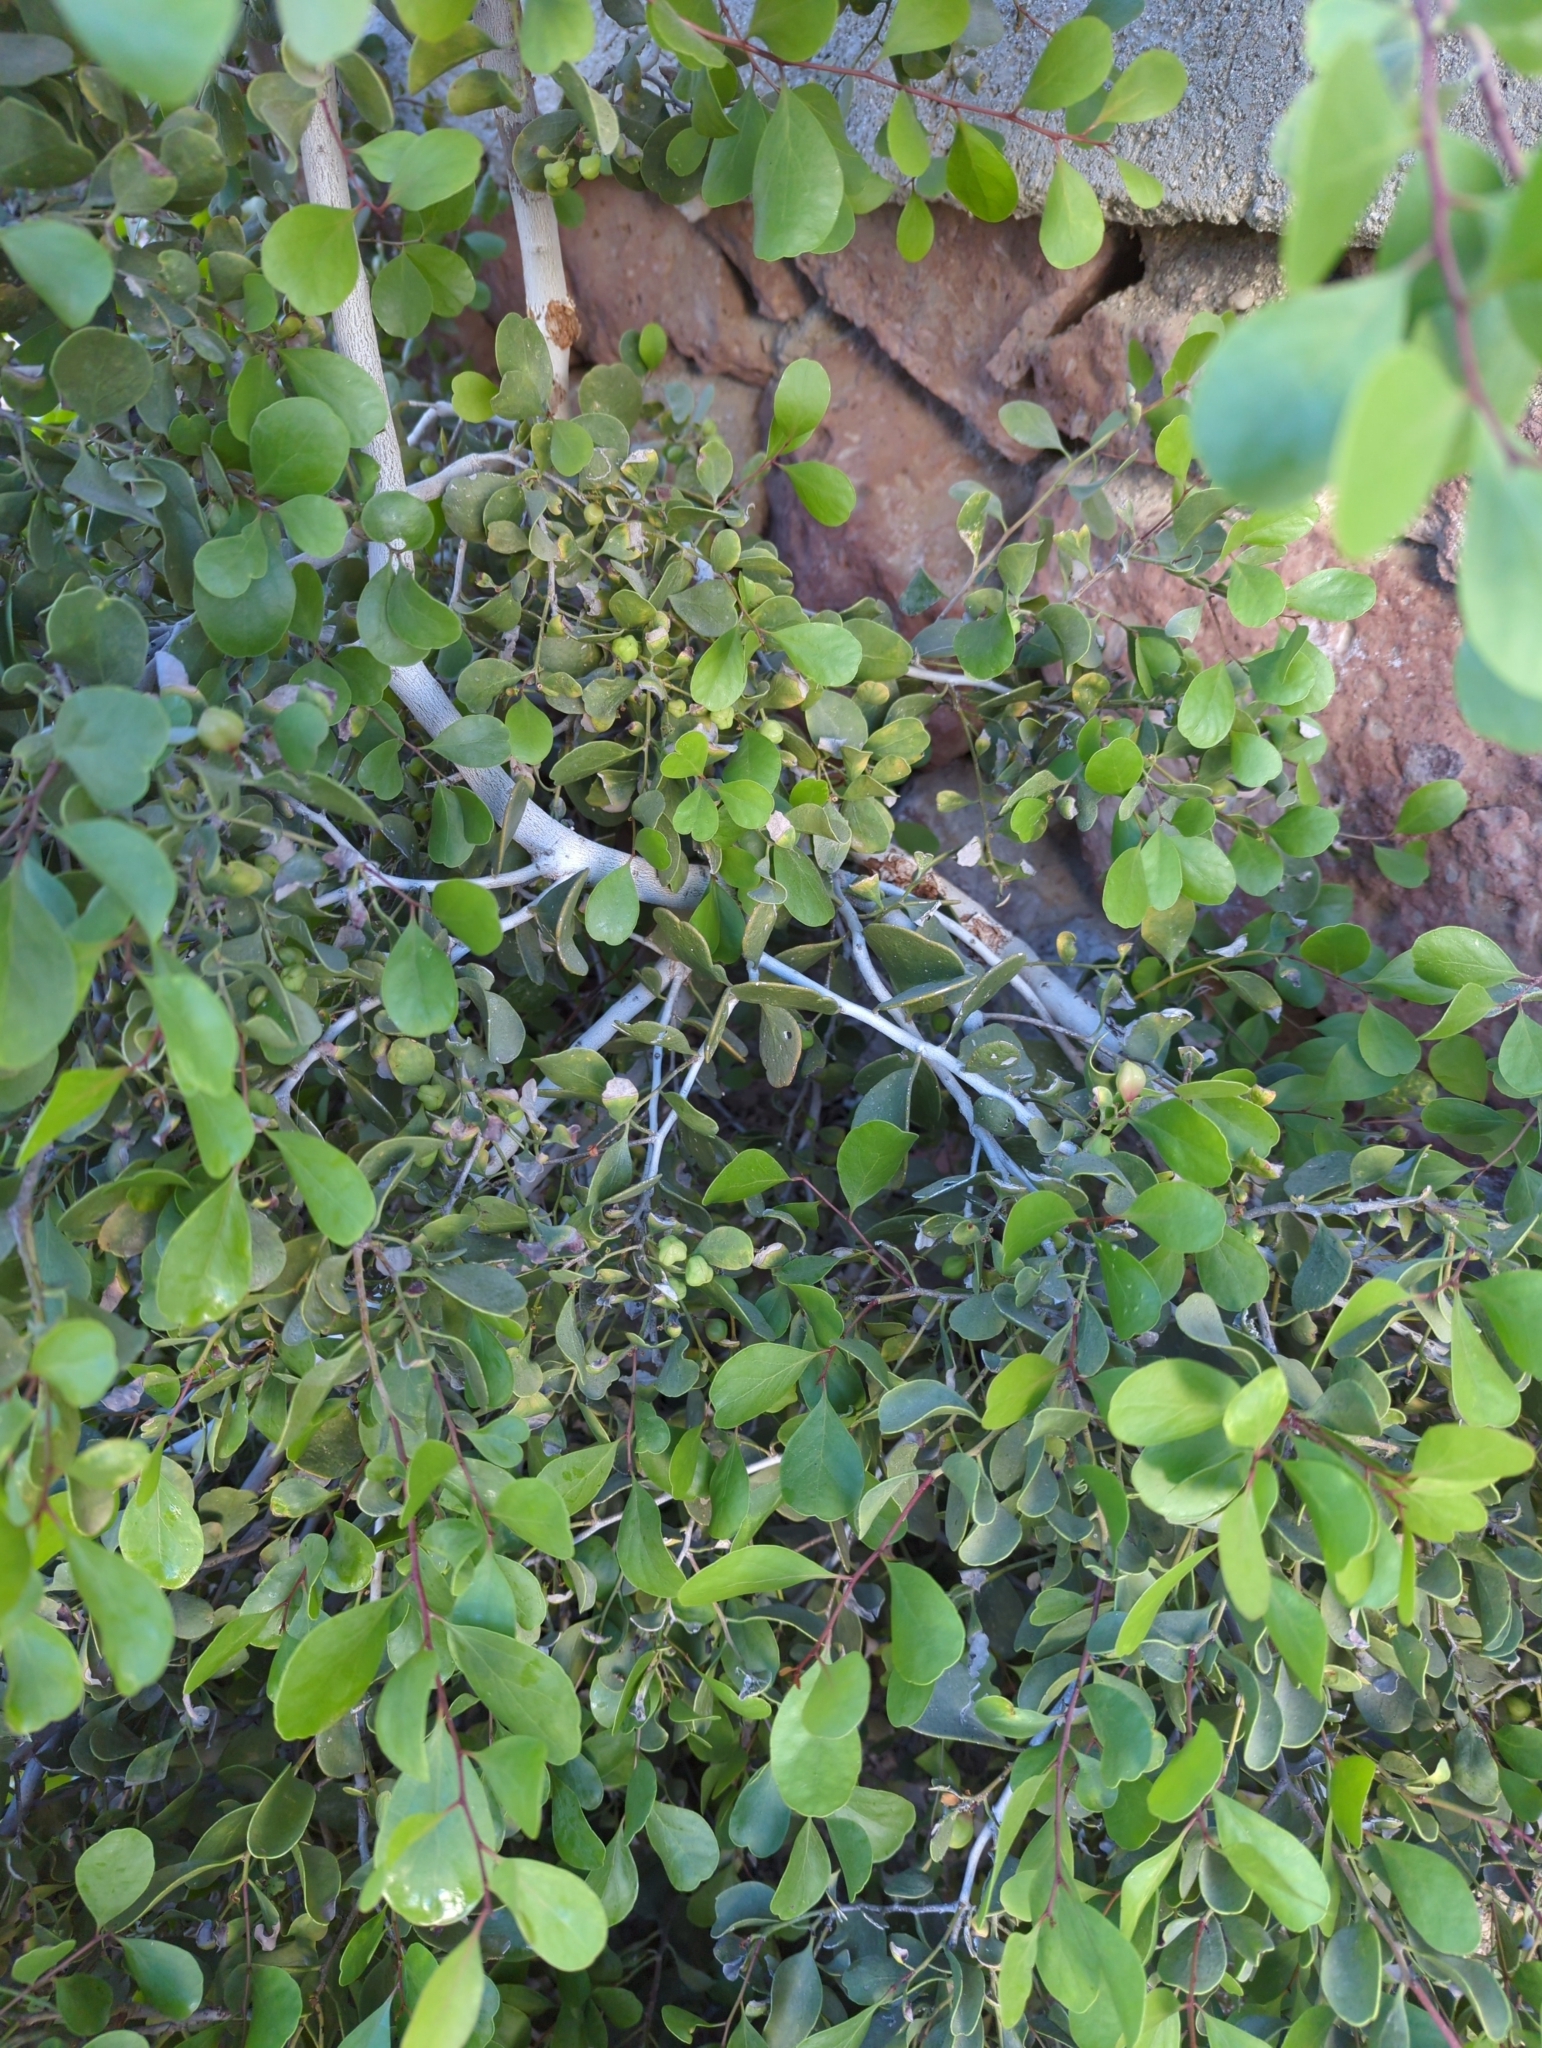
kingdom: Plantae
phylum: Tracheophyta
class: Magnoliopsida
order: Celastrales
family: Celastraceae
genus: Tricerma
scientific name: Tricerma phyllanthoides
